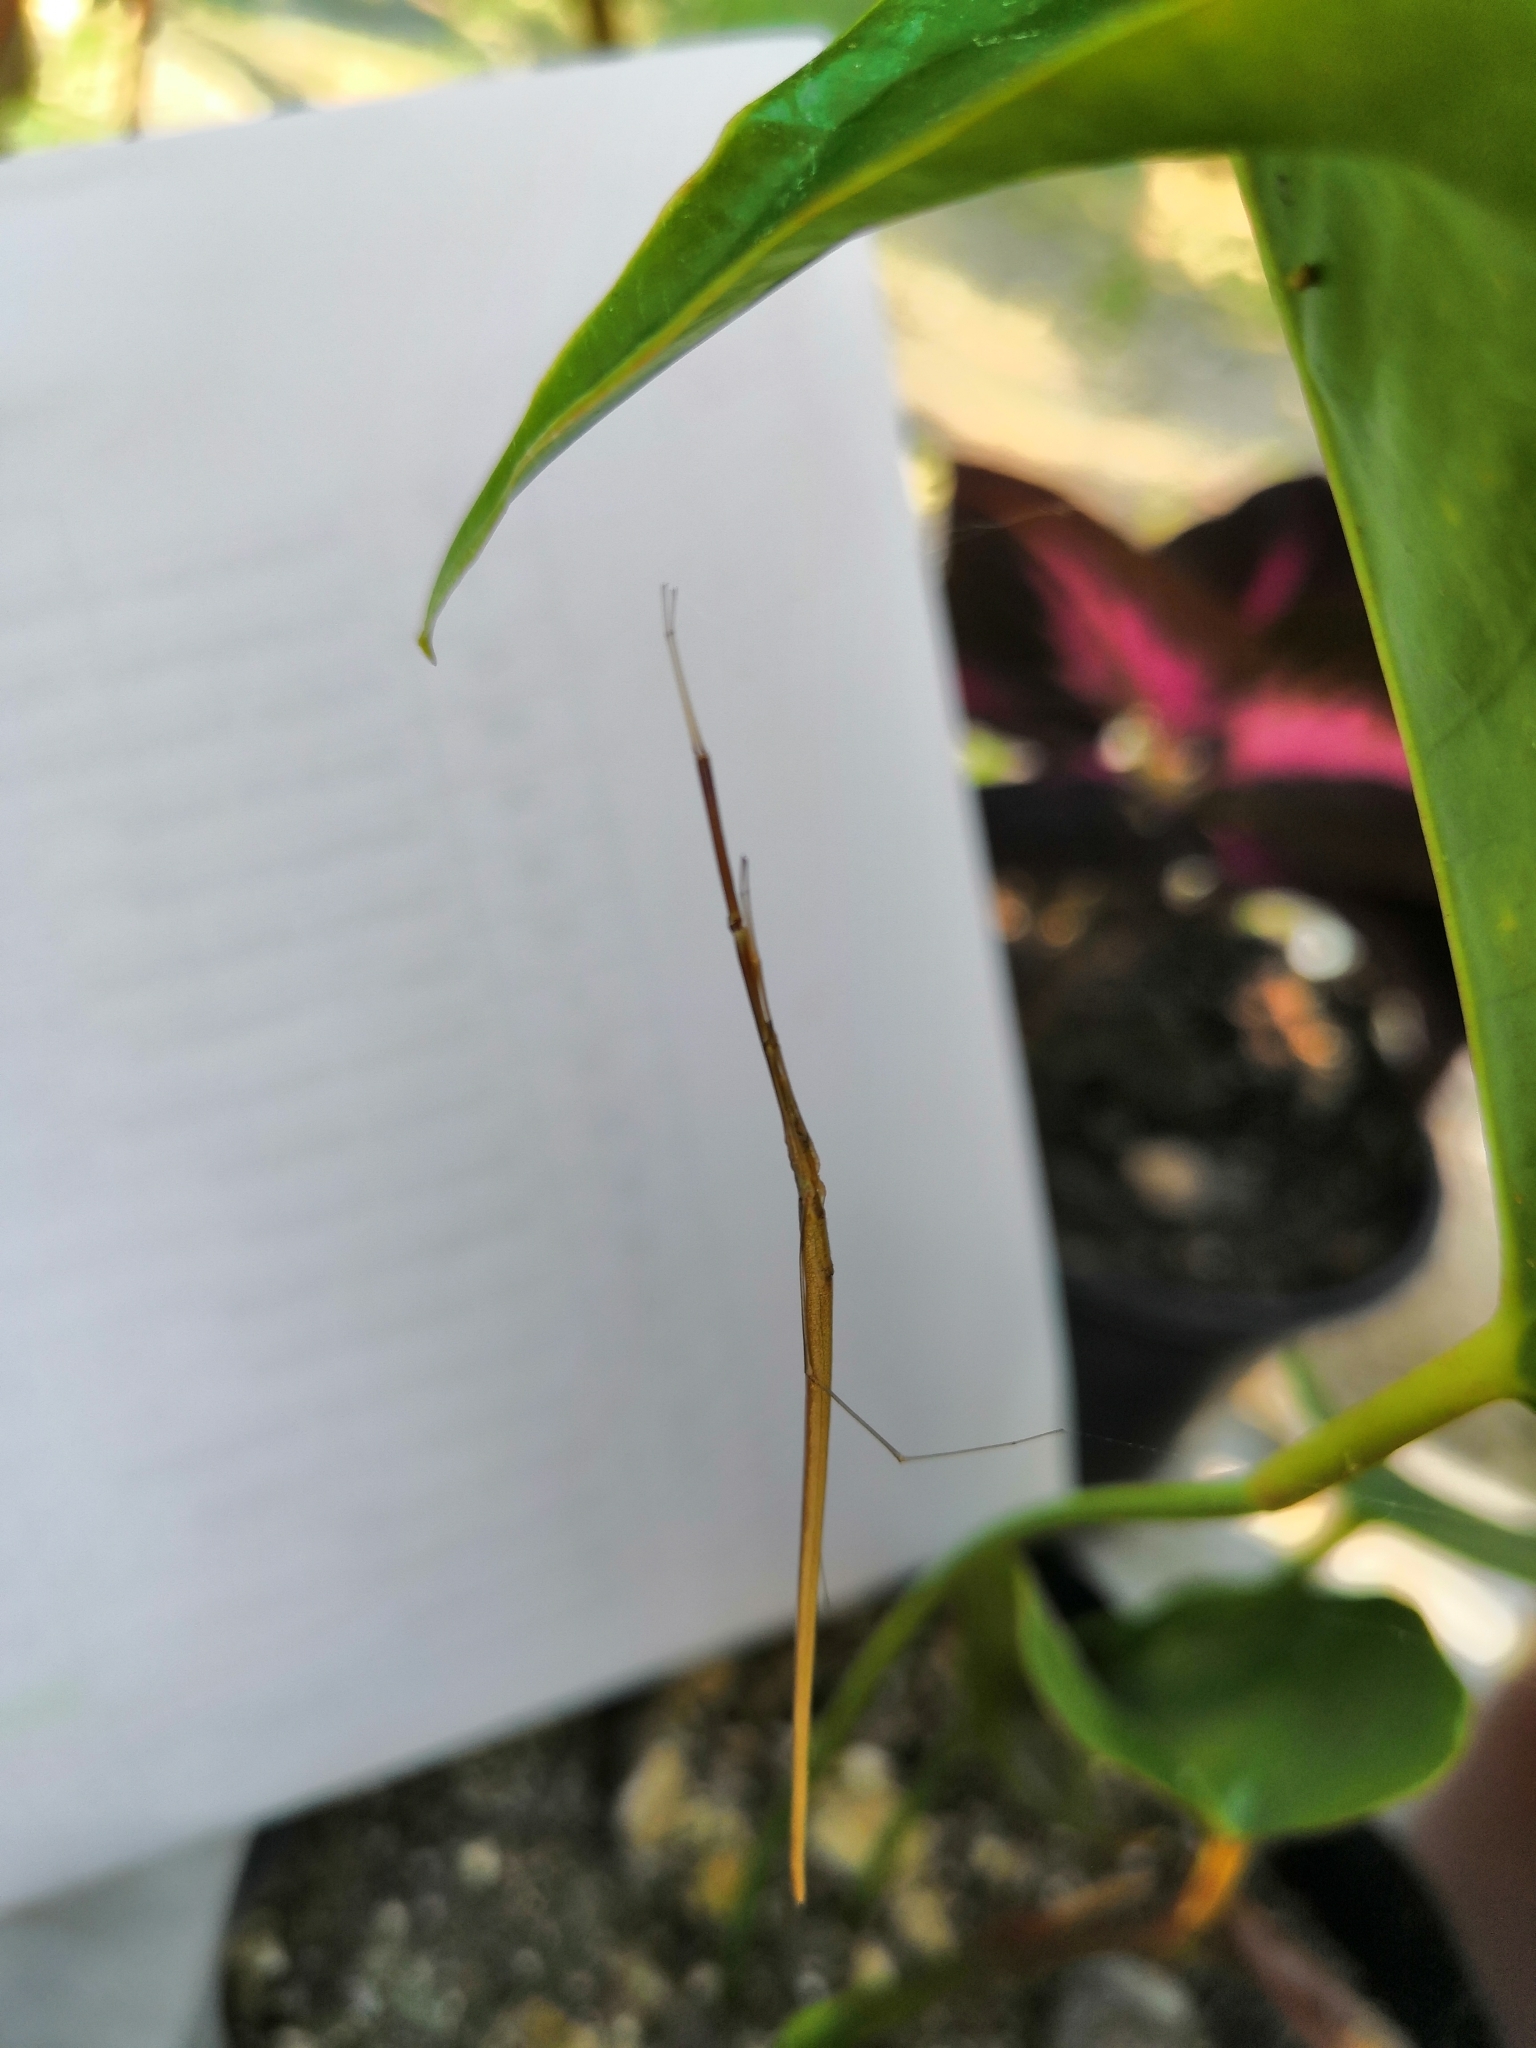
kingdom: Animalia
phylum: Arthropoda
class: Arachnida
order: Araneae
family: Theridiidae
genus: Ariamnes
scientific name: Ariamnes mexicanus
